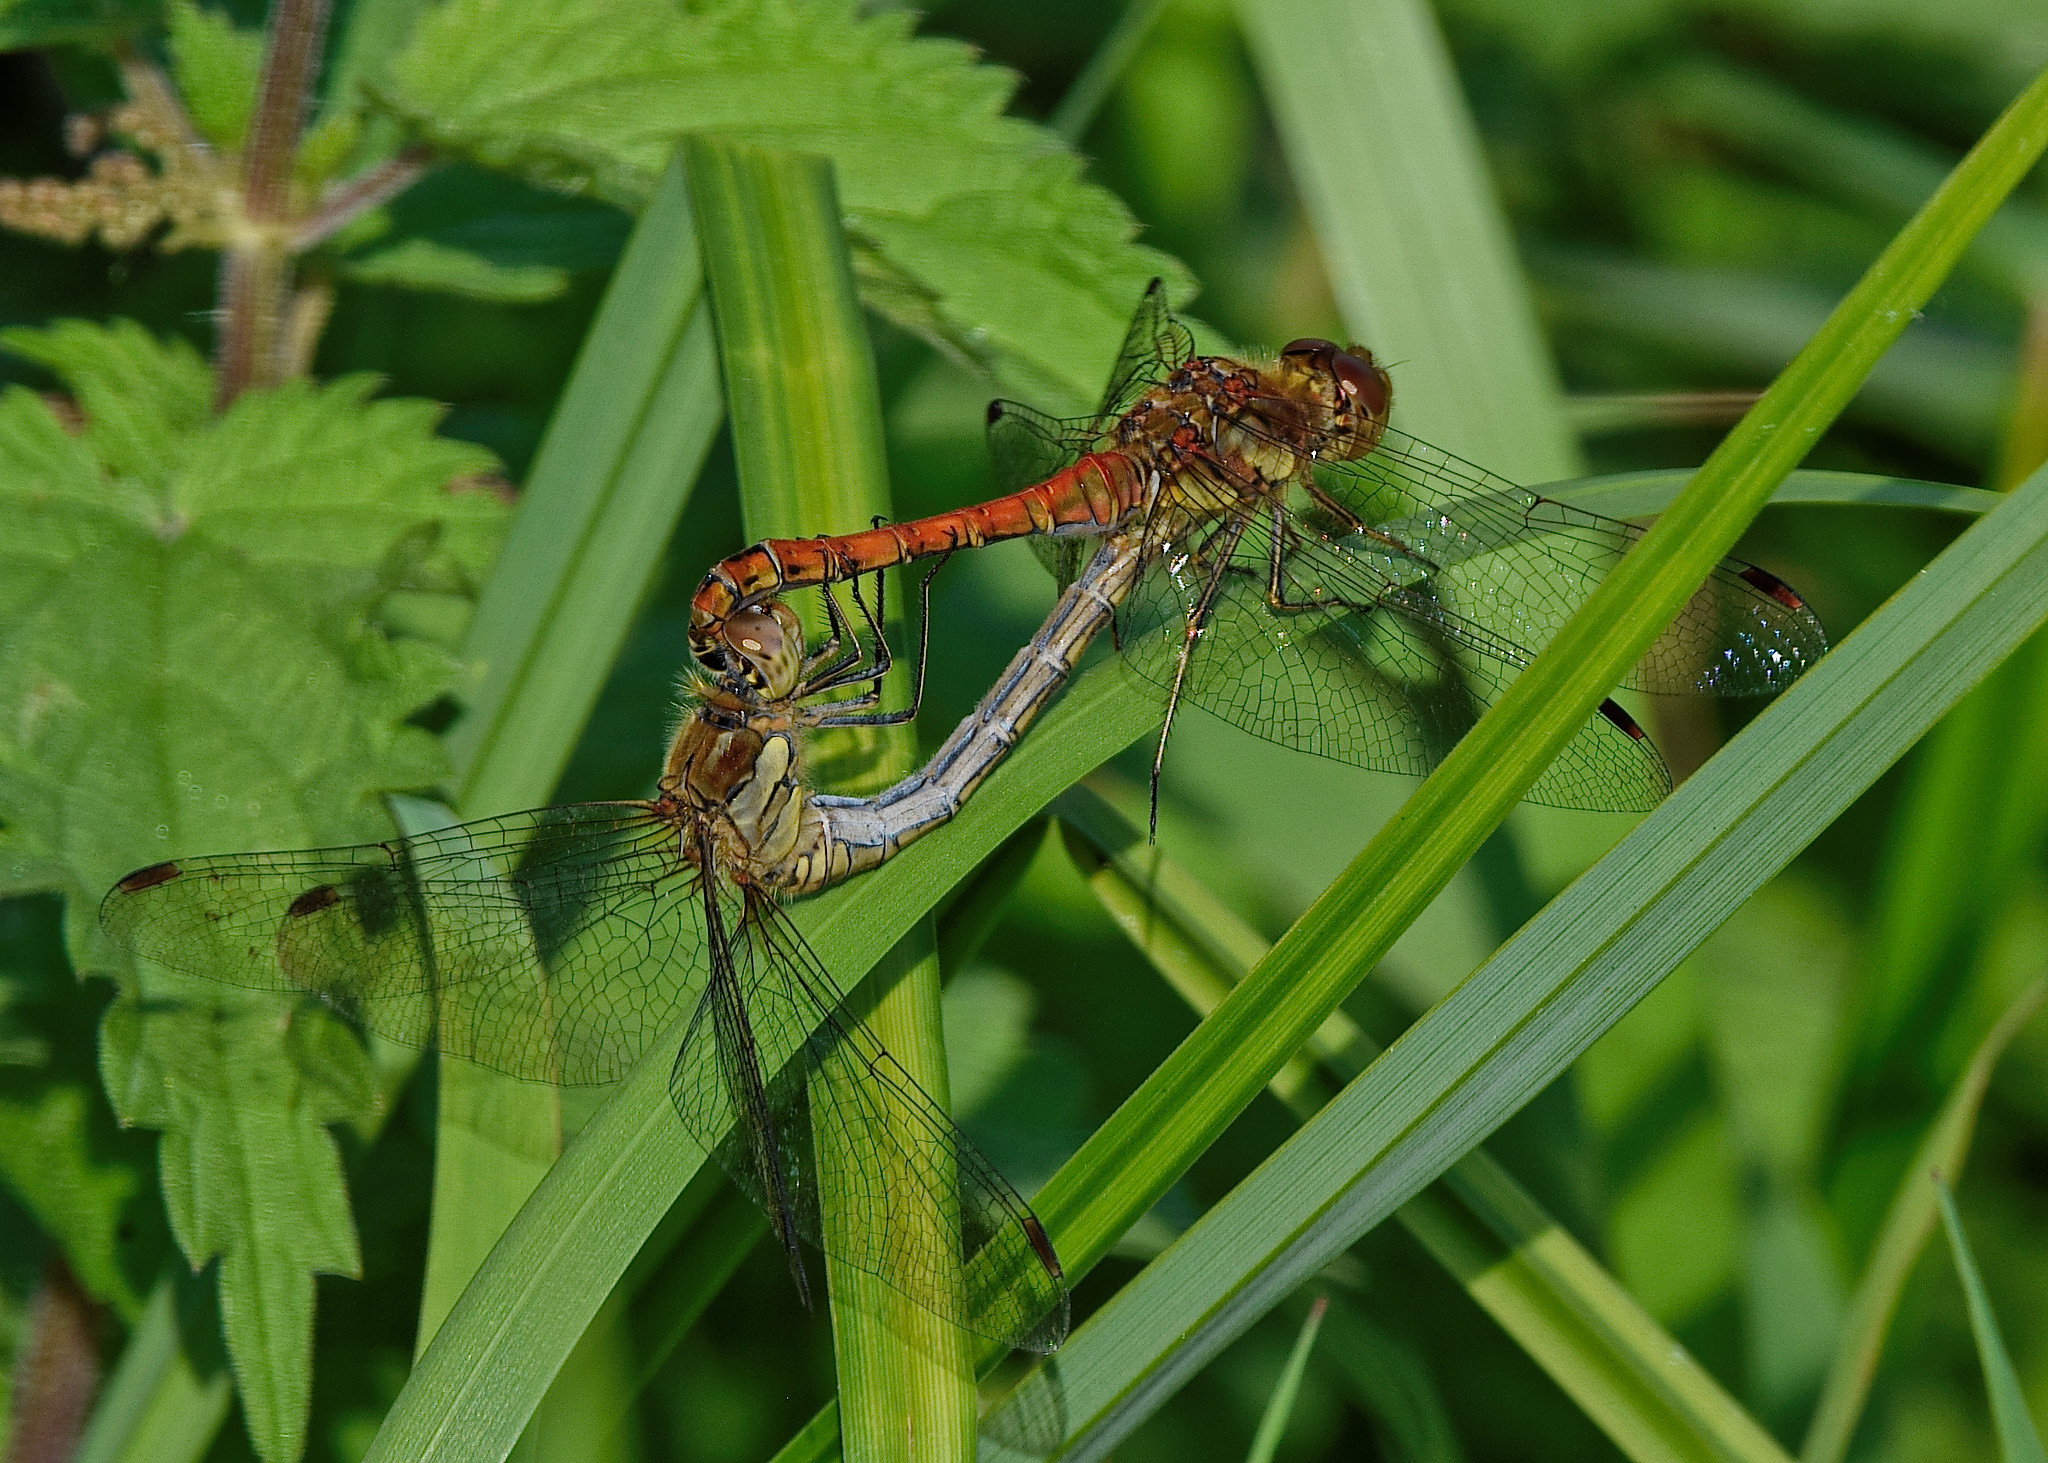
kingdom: Animalia
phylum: Arthropoda
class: Insecta
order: Odonata
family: Libellulidae
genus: Sympetrum
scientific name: Sympetrum striolatum
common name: Common darter
